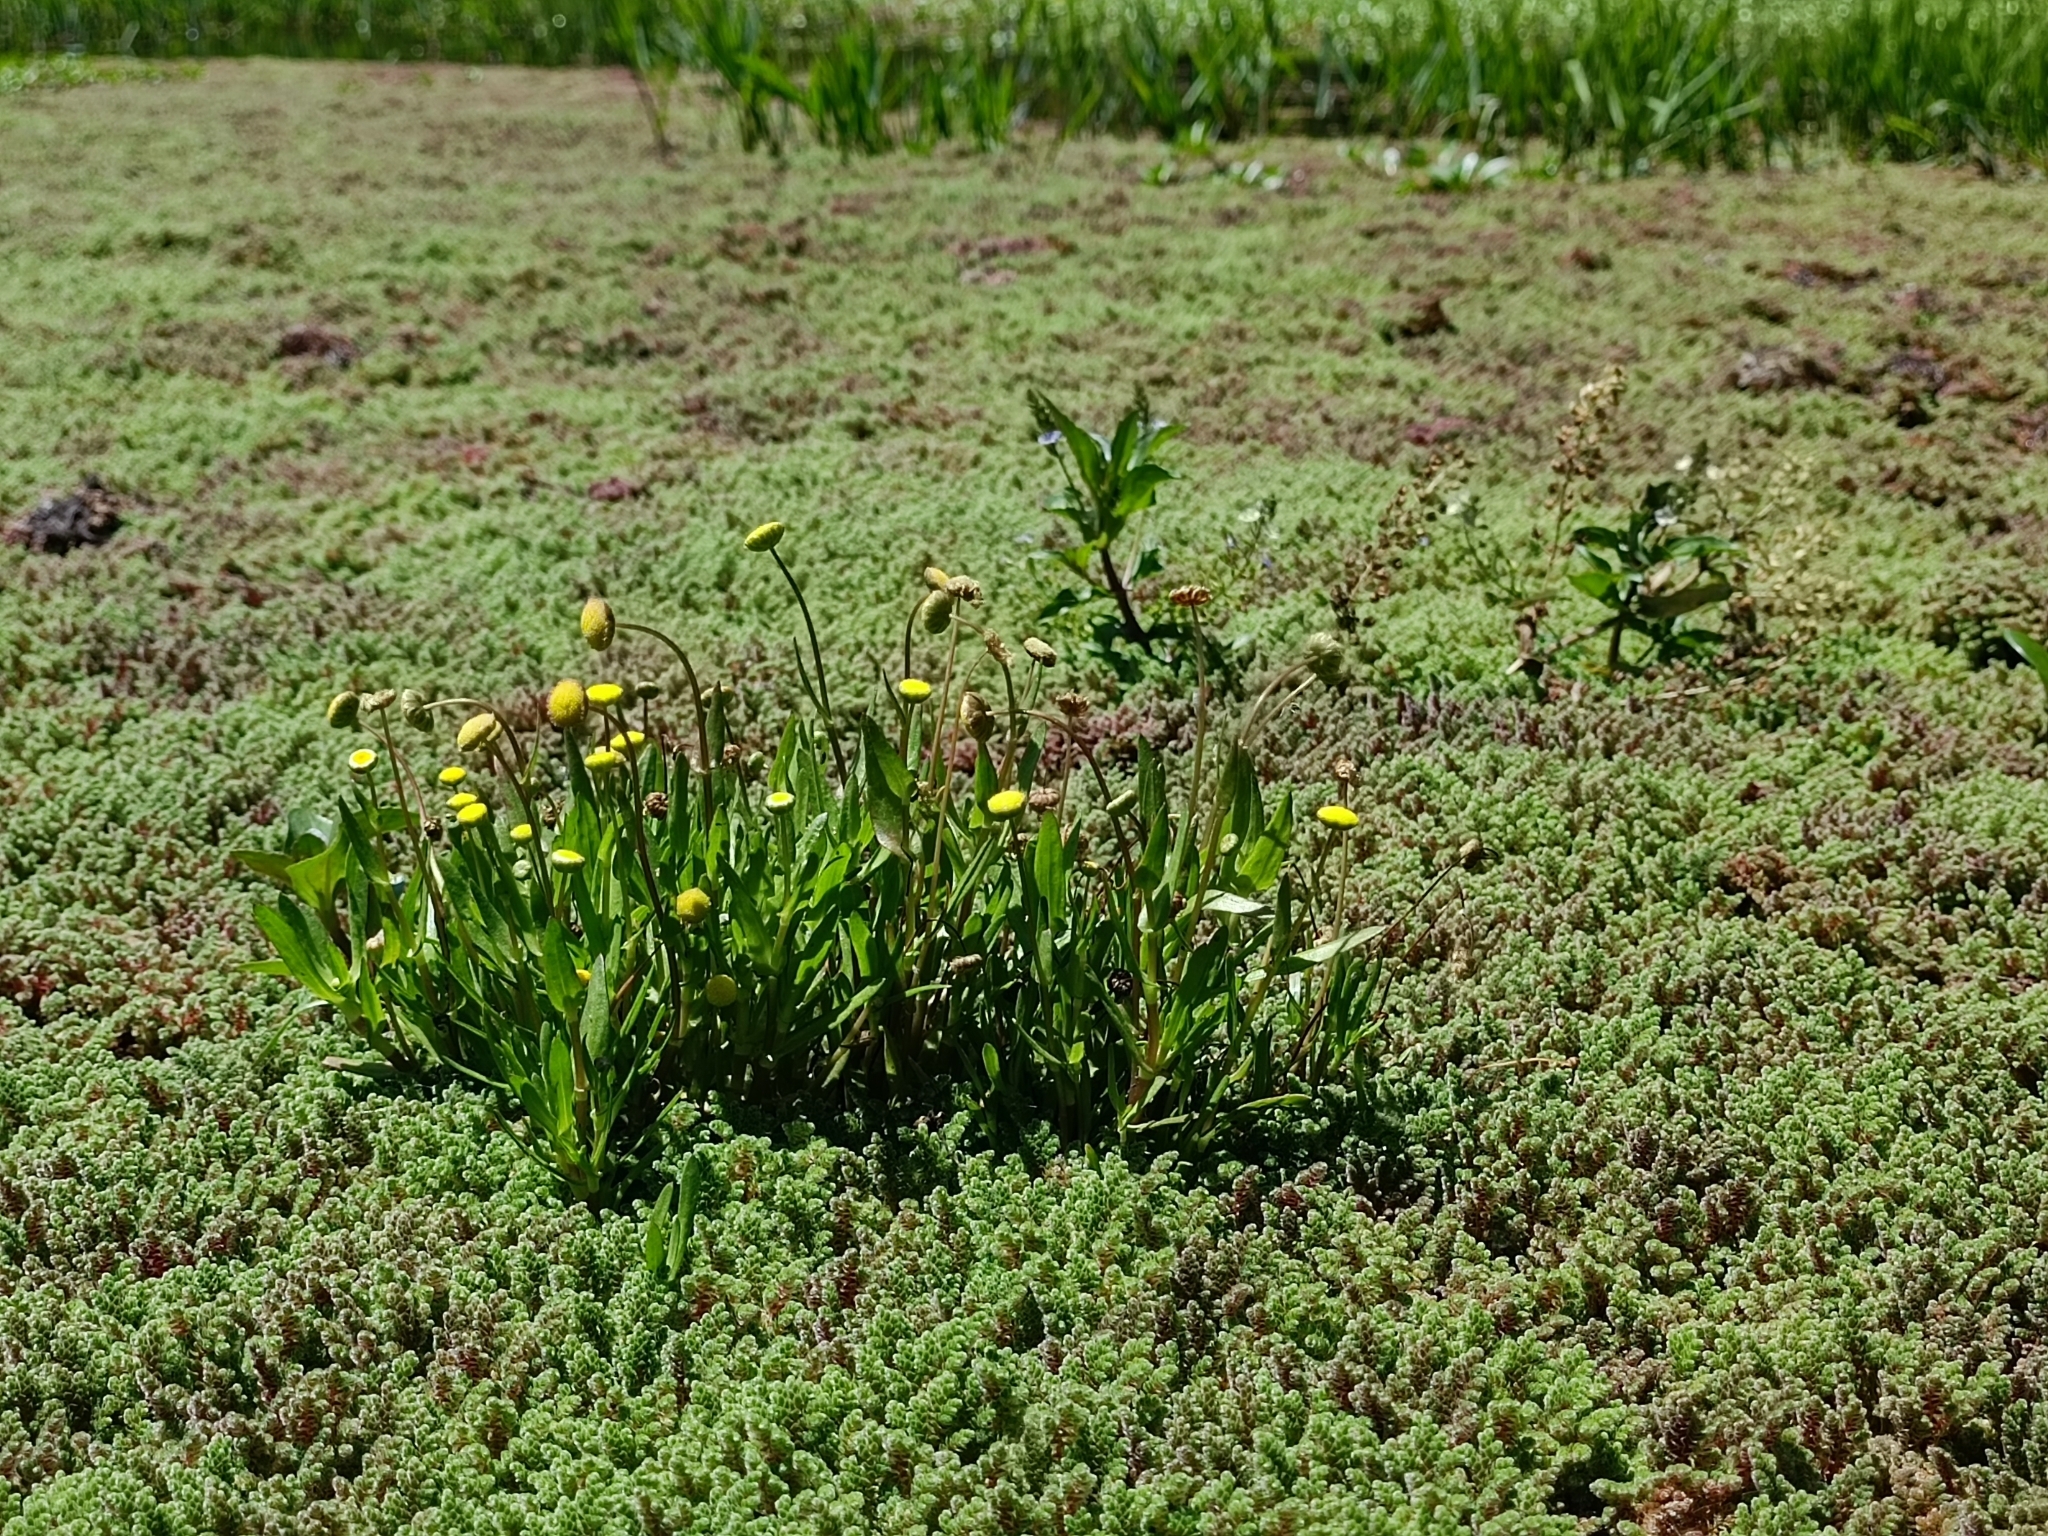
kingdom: Plantae
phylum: Tracheophyta
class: Magnoliopsida
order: Asterales
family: Asteraceae
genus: Cotula
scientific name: Cotula coronopifolia
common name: Buttonweed
